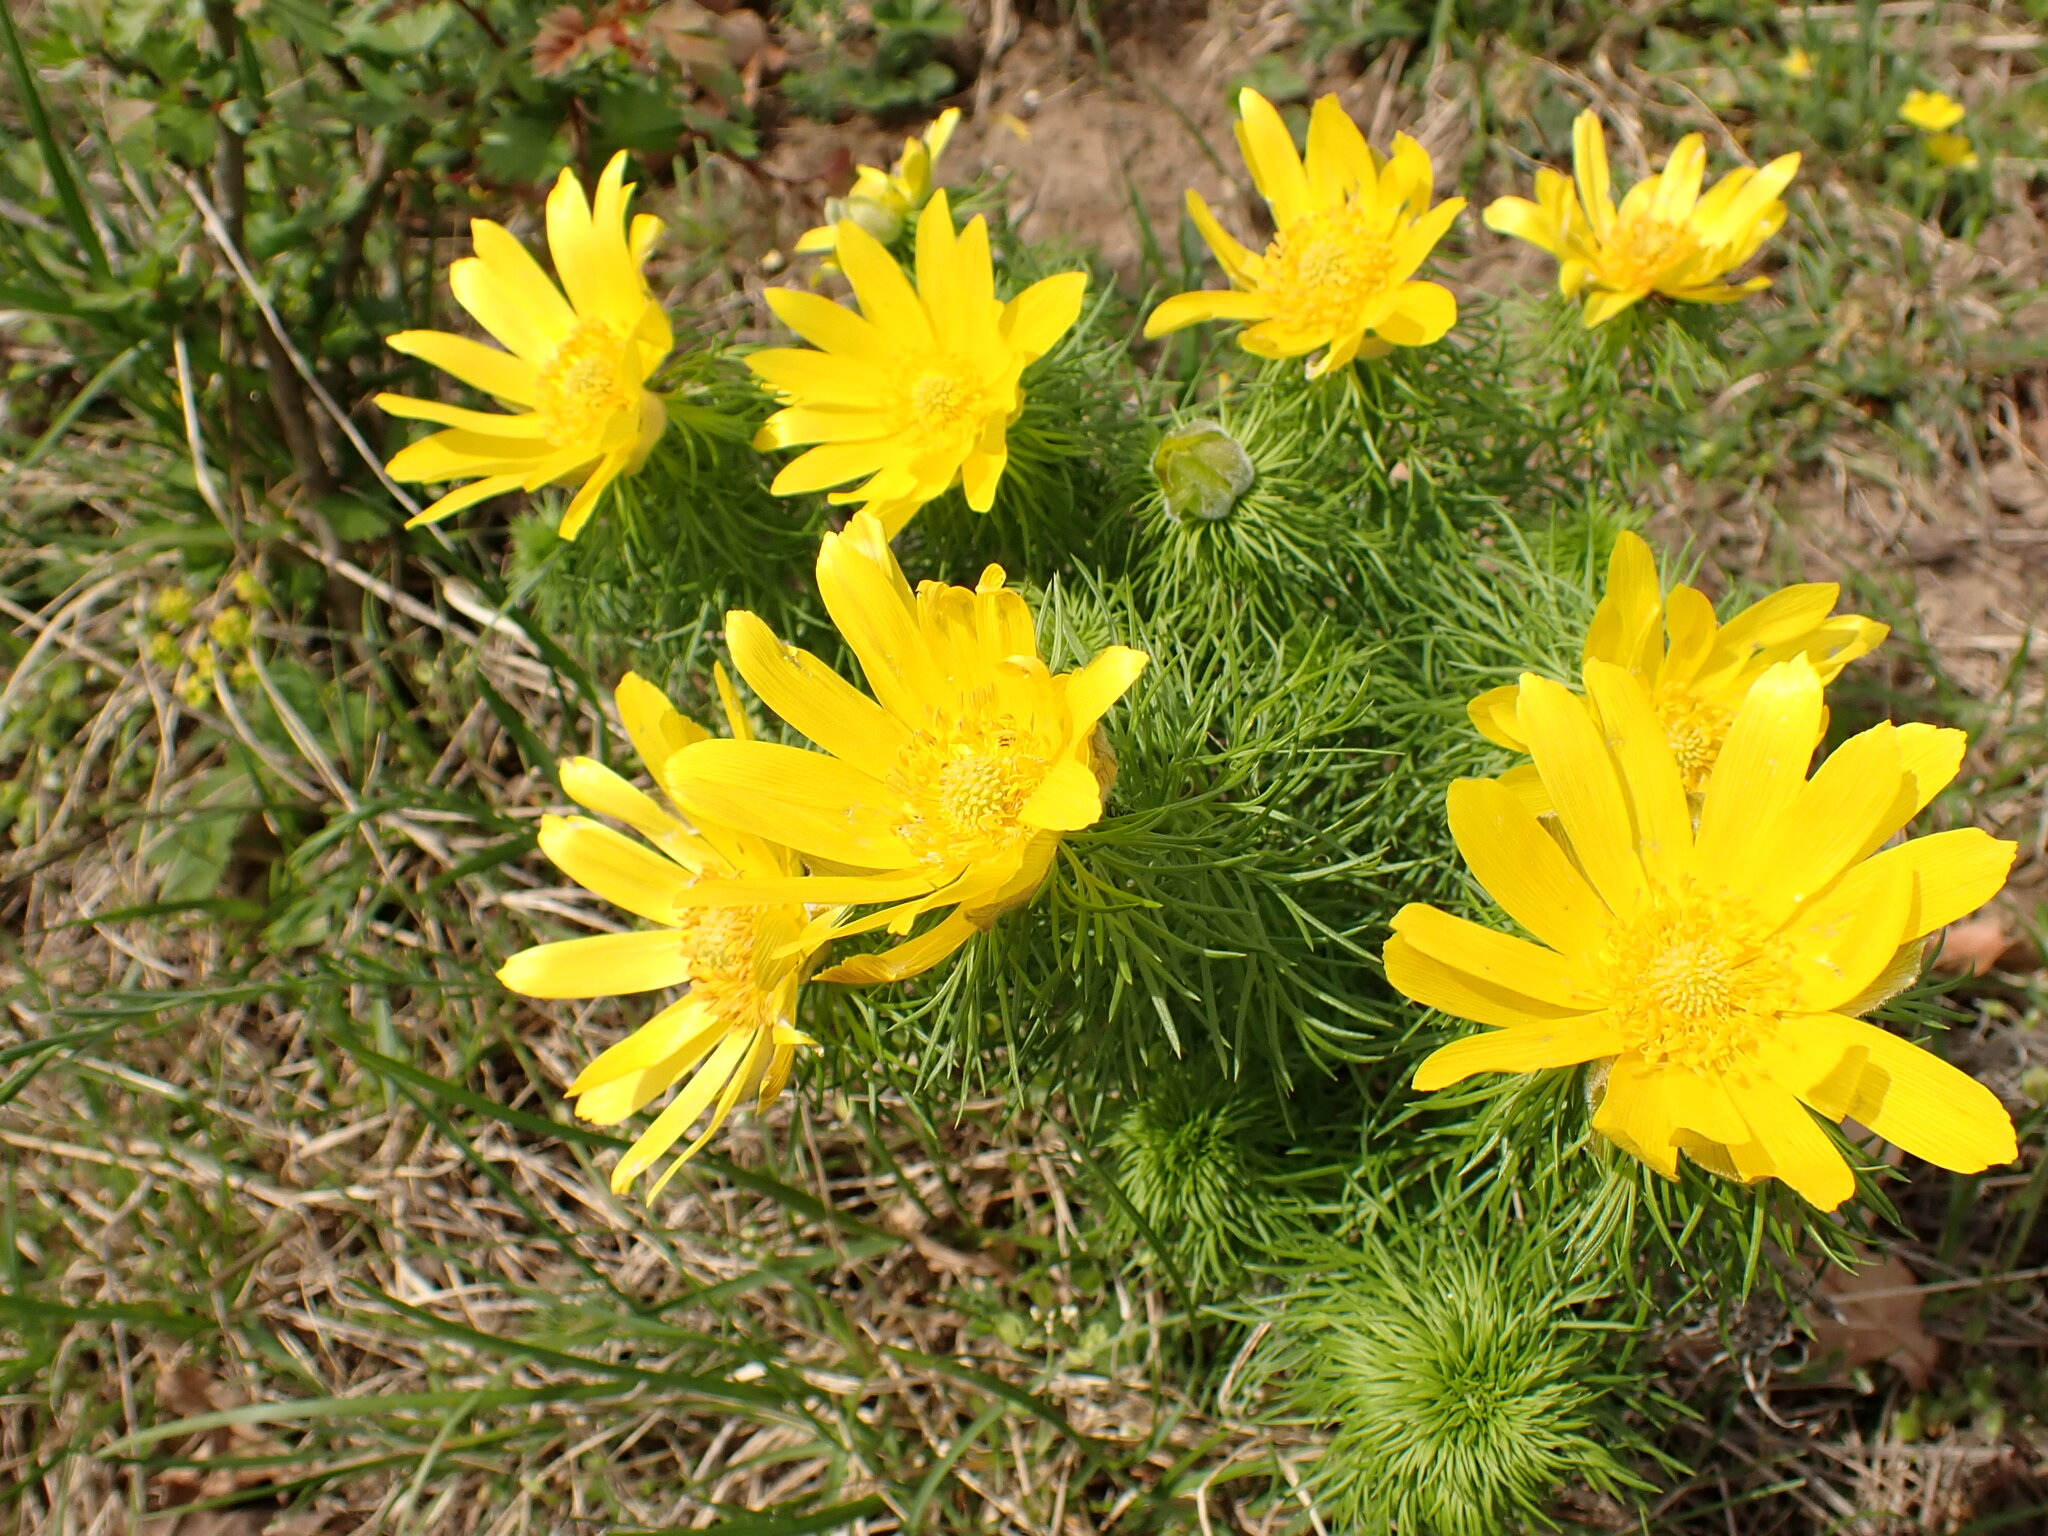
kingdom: Plantae
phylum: Tracheophyta
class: Magnoliopsida
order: Ranunculales
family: Ranunculaceae
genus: Adonis
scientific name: Adonis vernalis
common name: Yellow pheasants-eye
